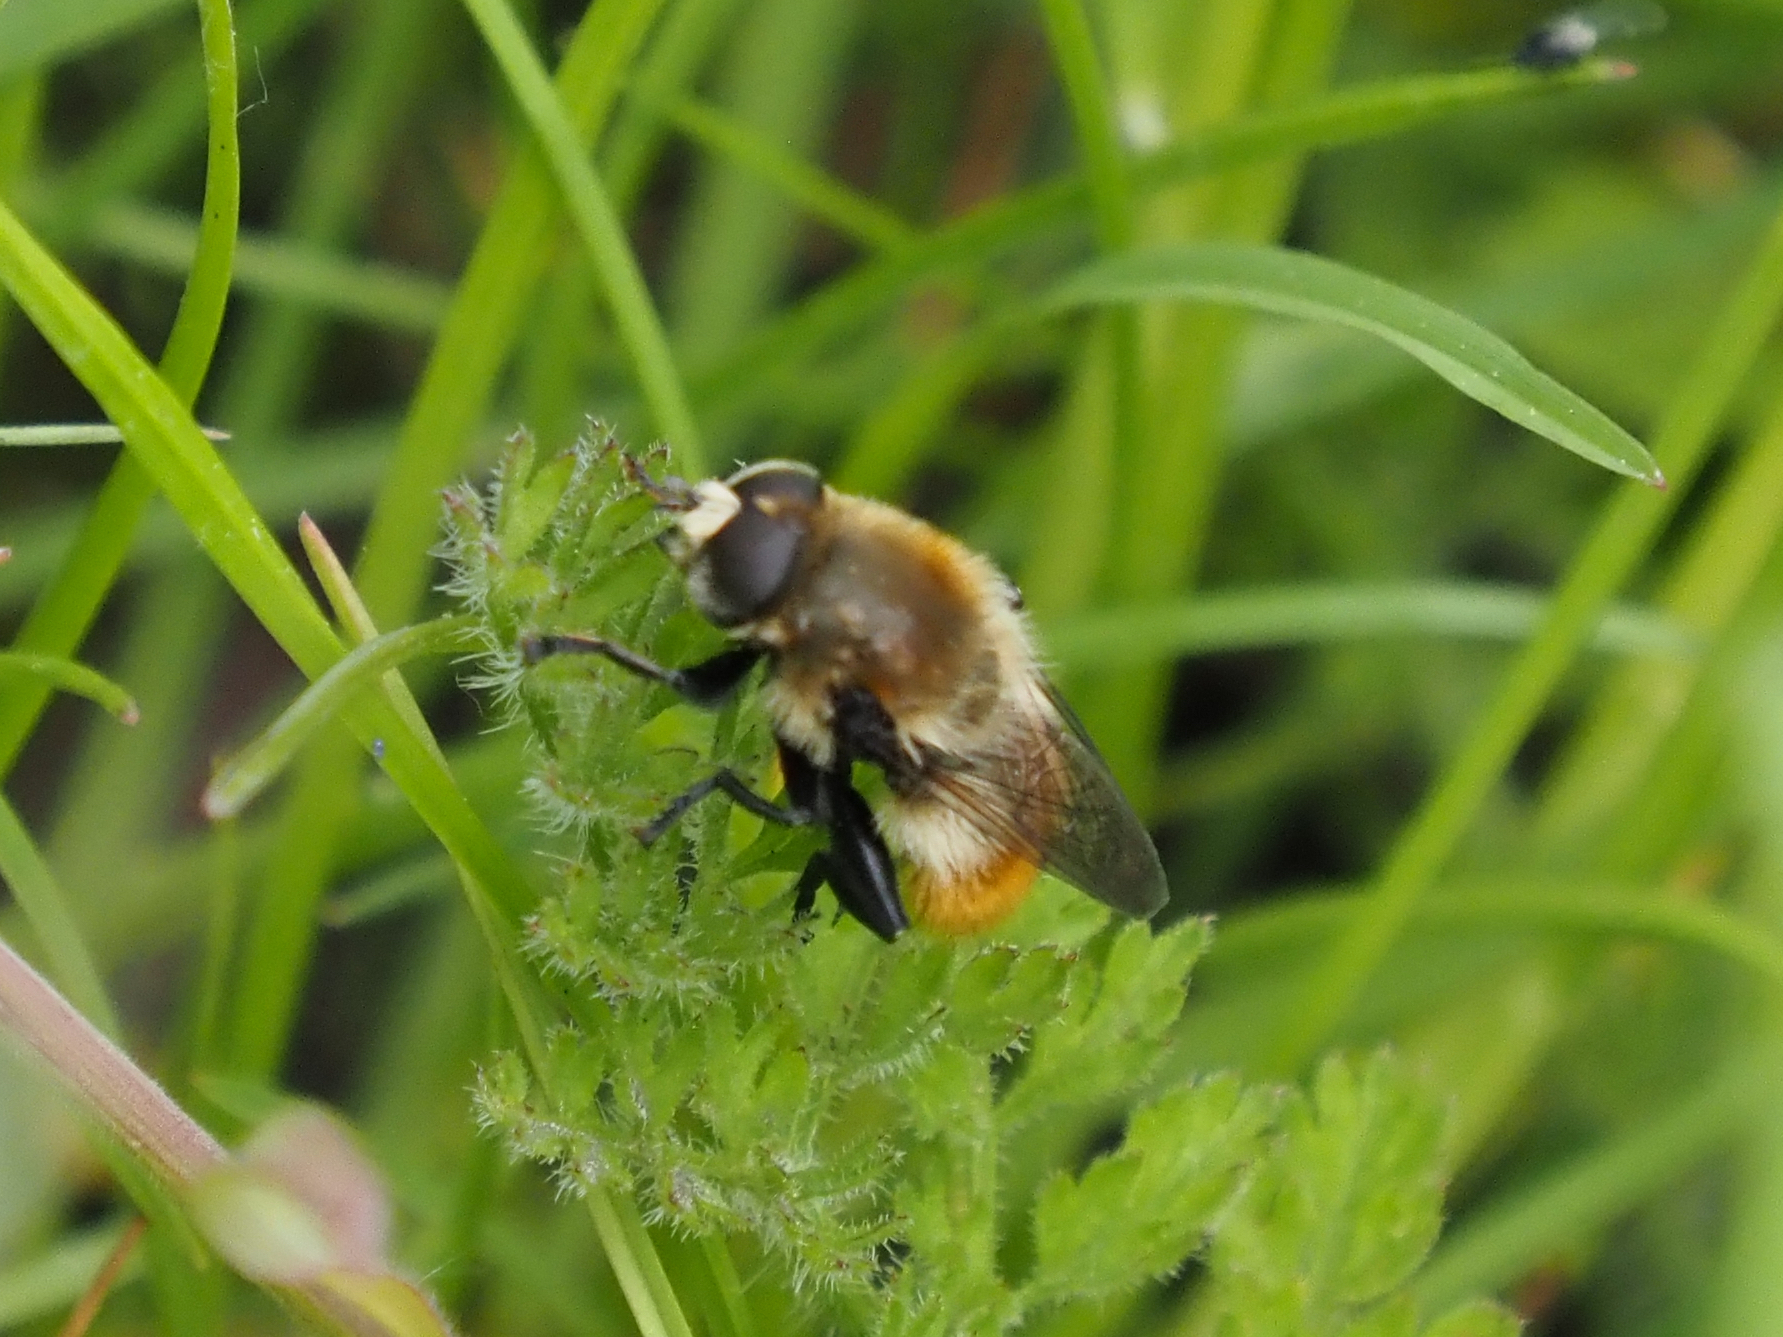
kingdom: Animalia
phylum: Arthropoda
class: Insecta
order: Diptera
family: Syrphidae
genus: Merodon
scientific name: Merodon equestris
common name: Greater bulb-fly
